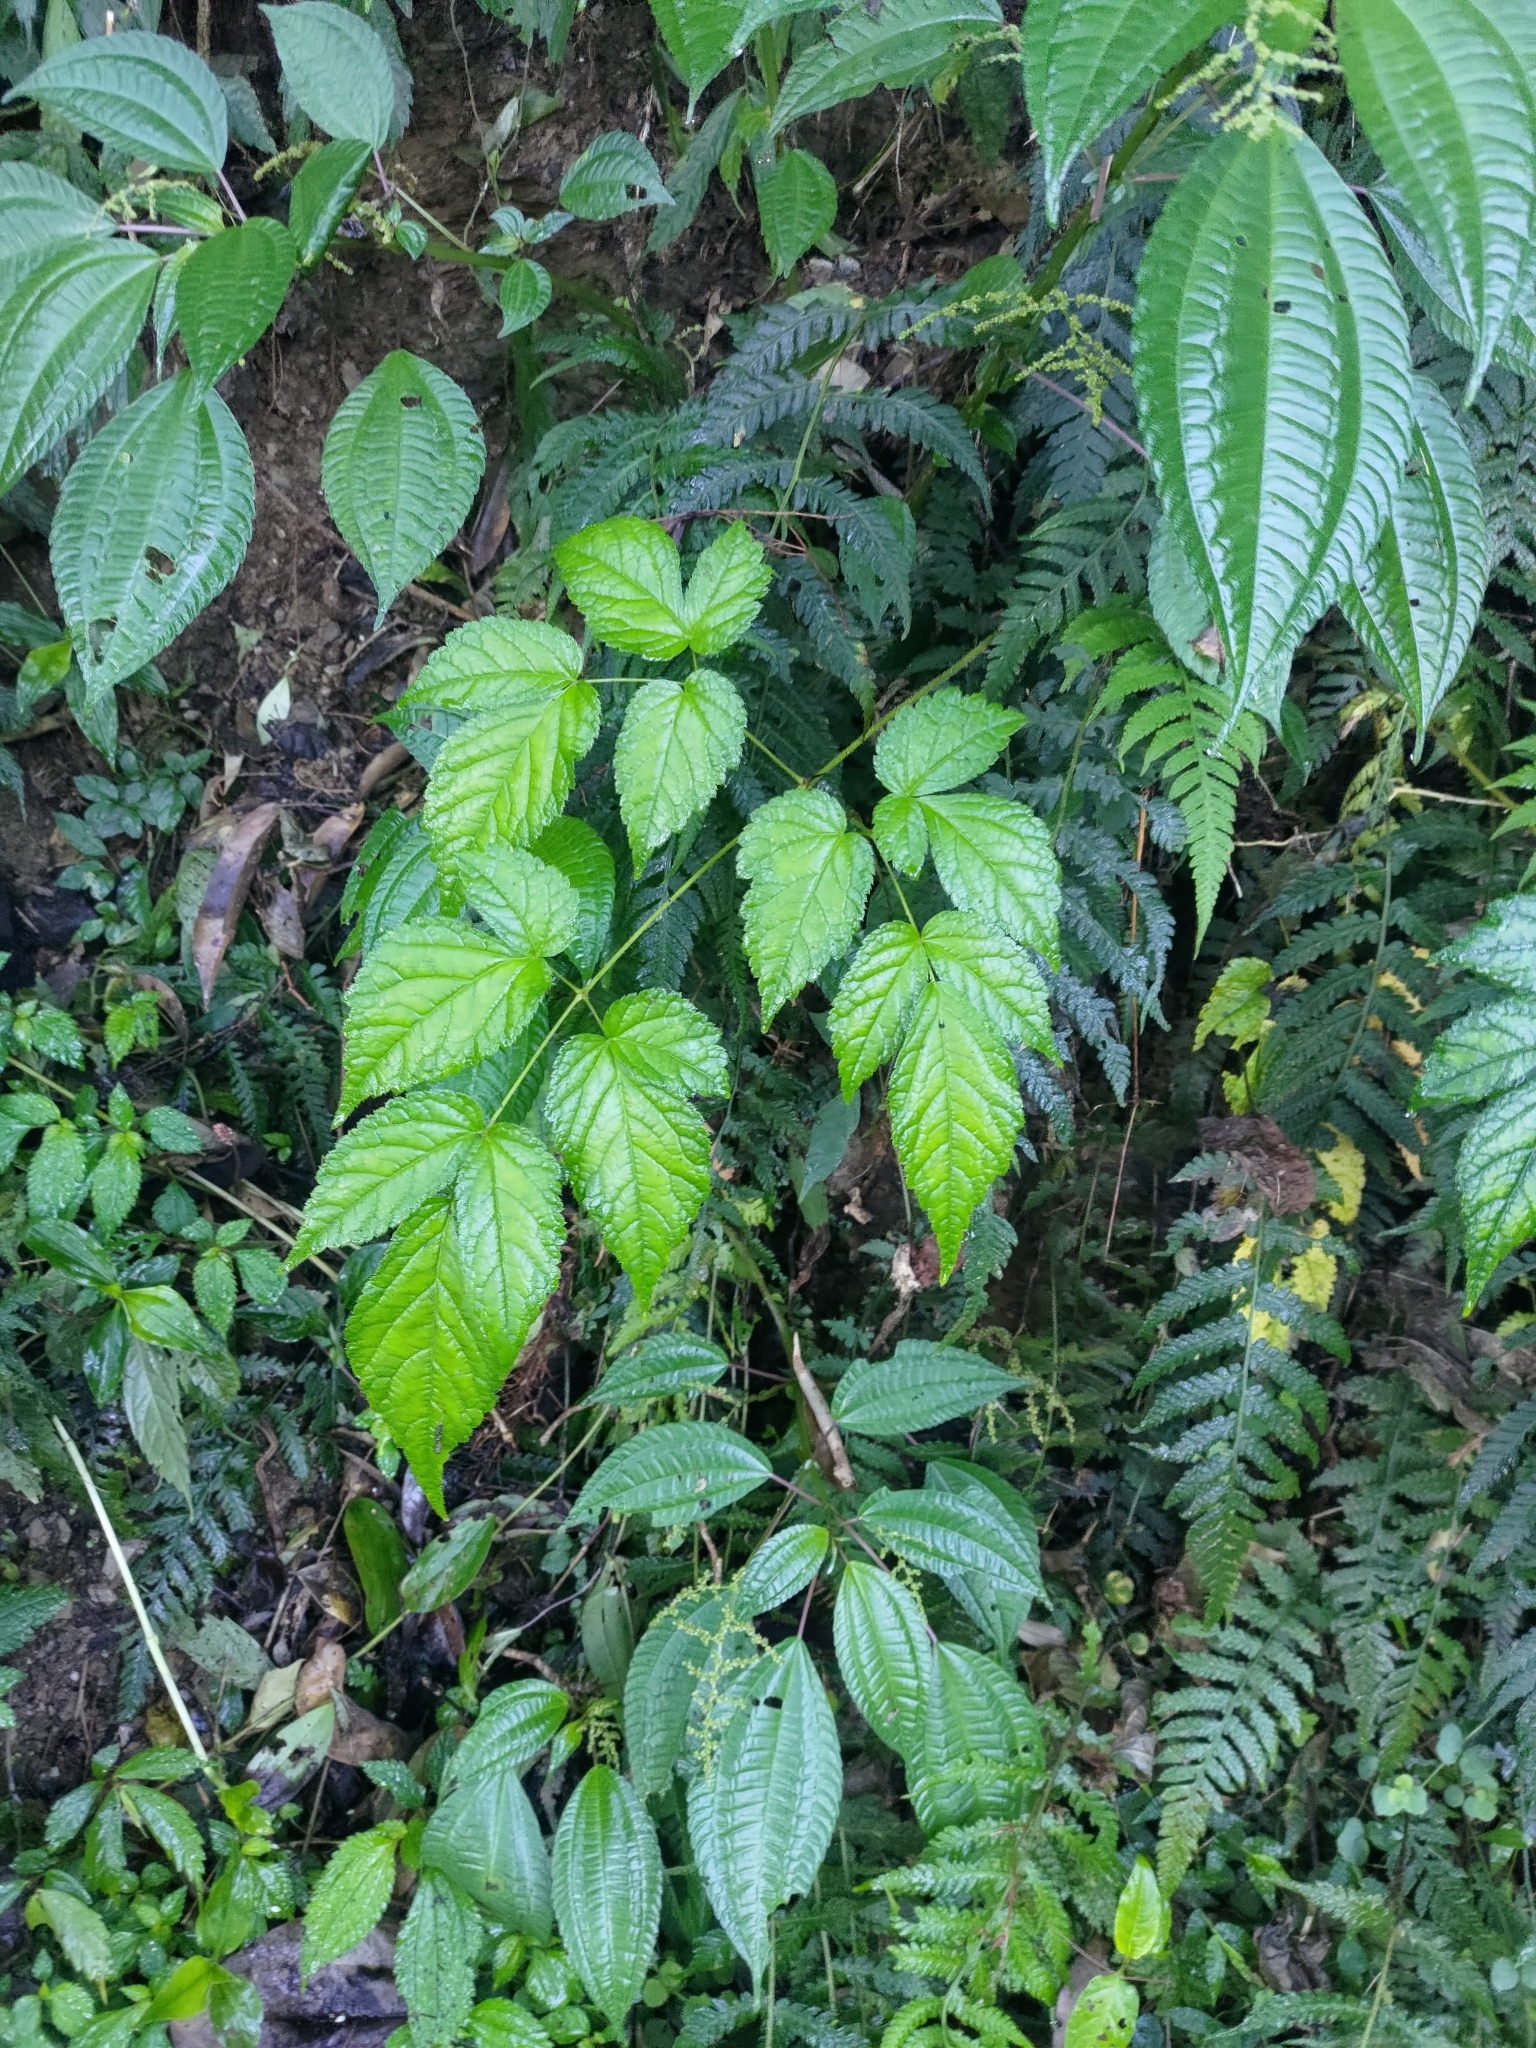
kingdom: Plantae
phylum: Tracheophyta
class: Magnoliopsida
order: Saxifragales
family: Saxifragaceae
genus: Astilbe
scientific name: Astilbe longicarpa
